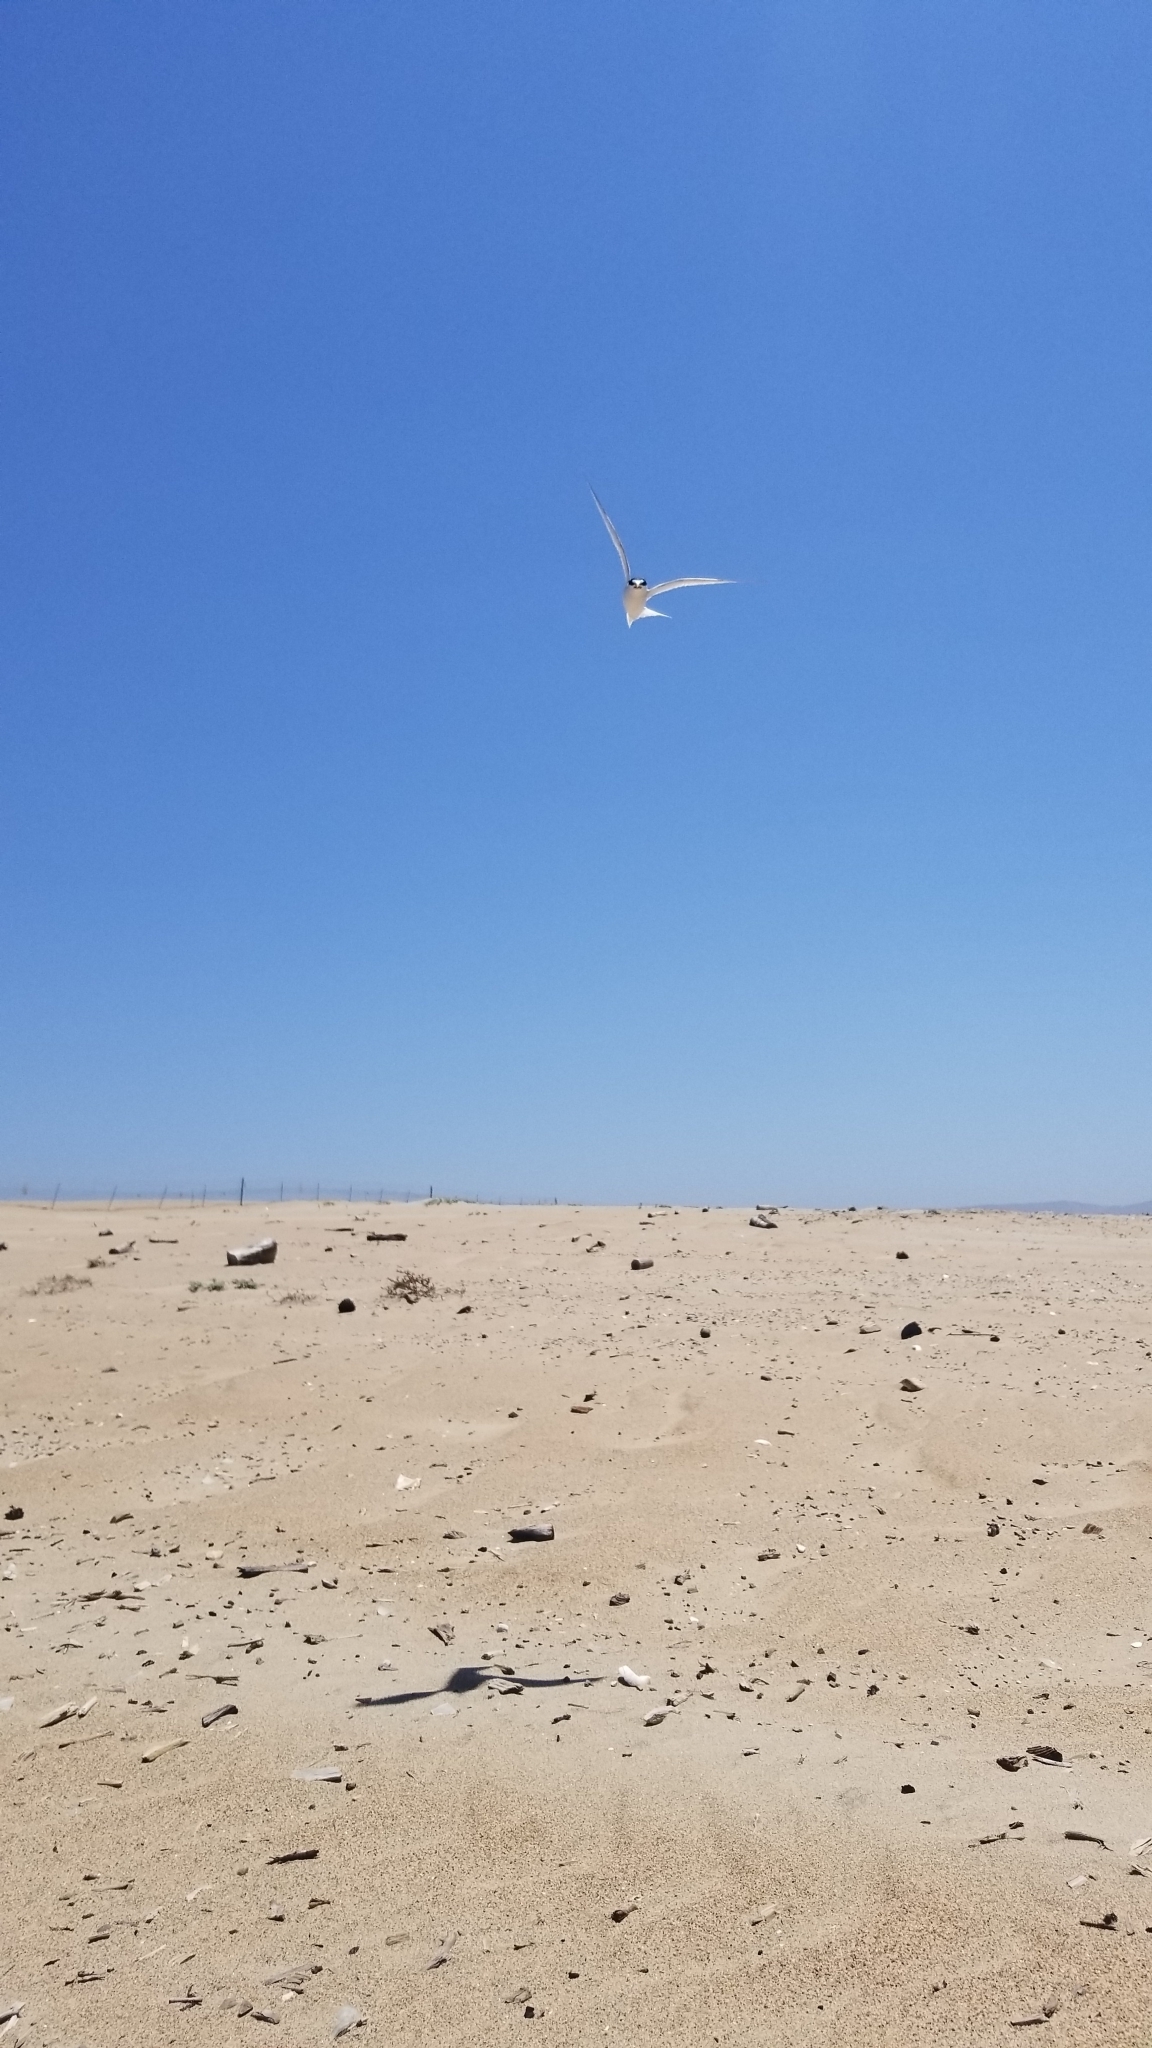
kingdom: Animalia
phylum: Chordata
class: Aves
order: Charadriiformes
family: Laridae
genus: Sternula
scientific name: Sternula antillarum
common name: Least tern
